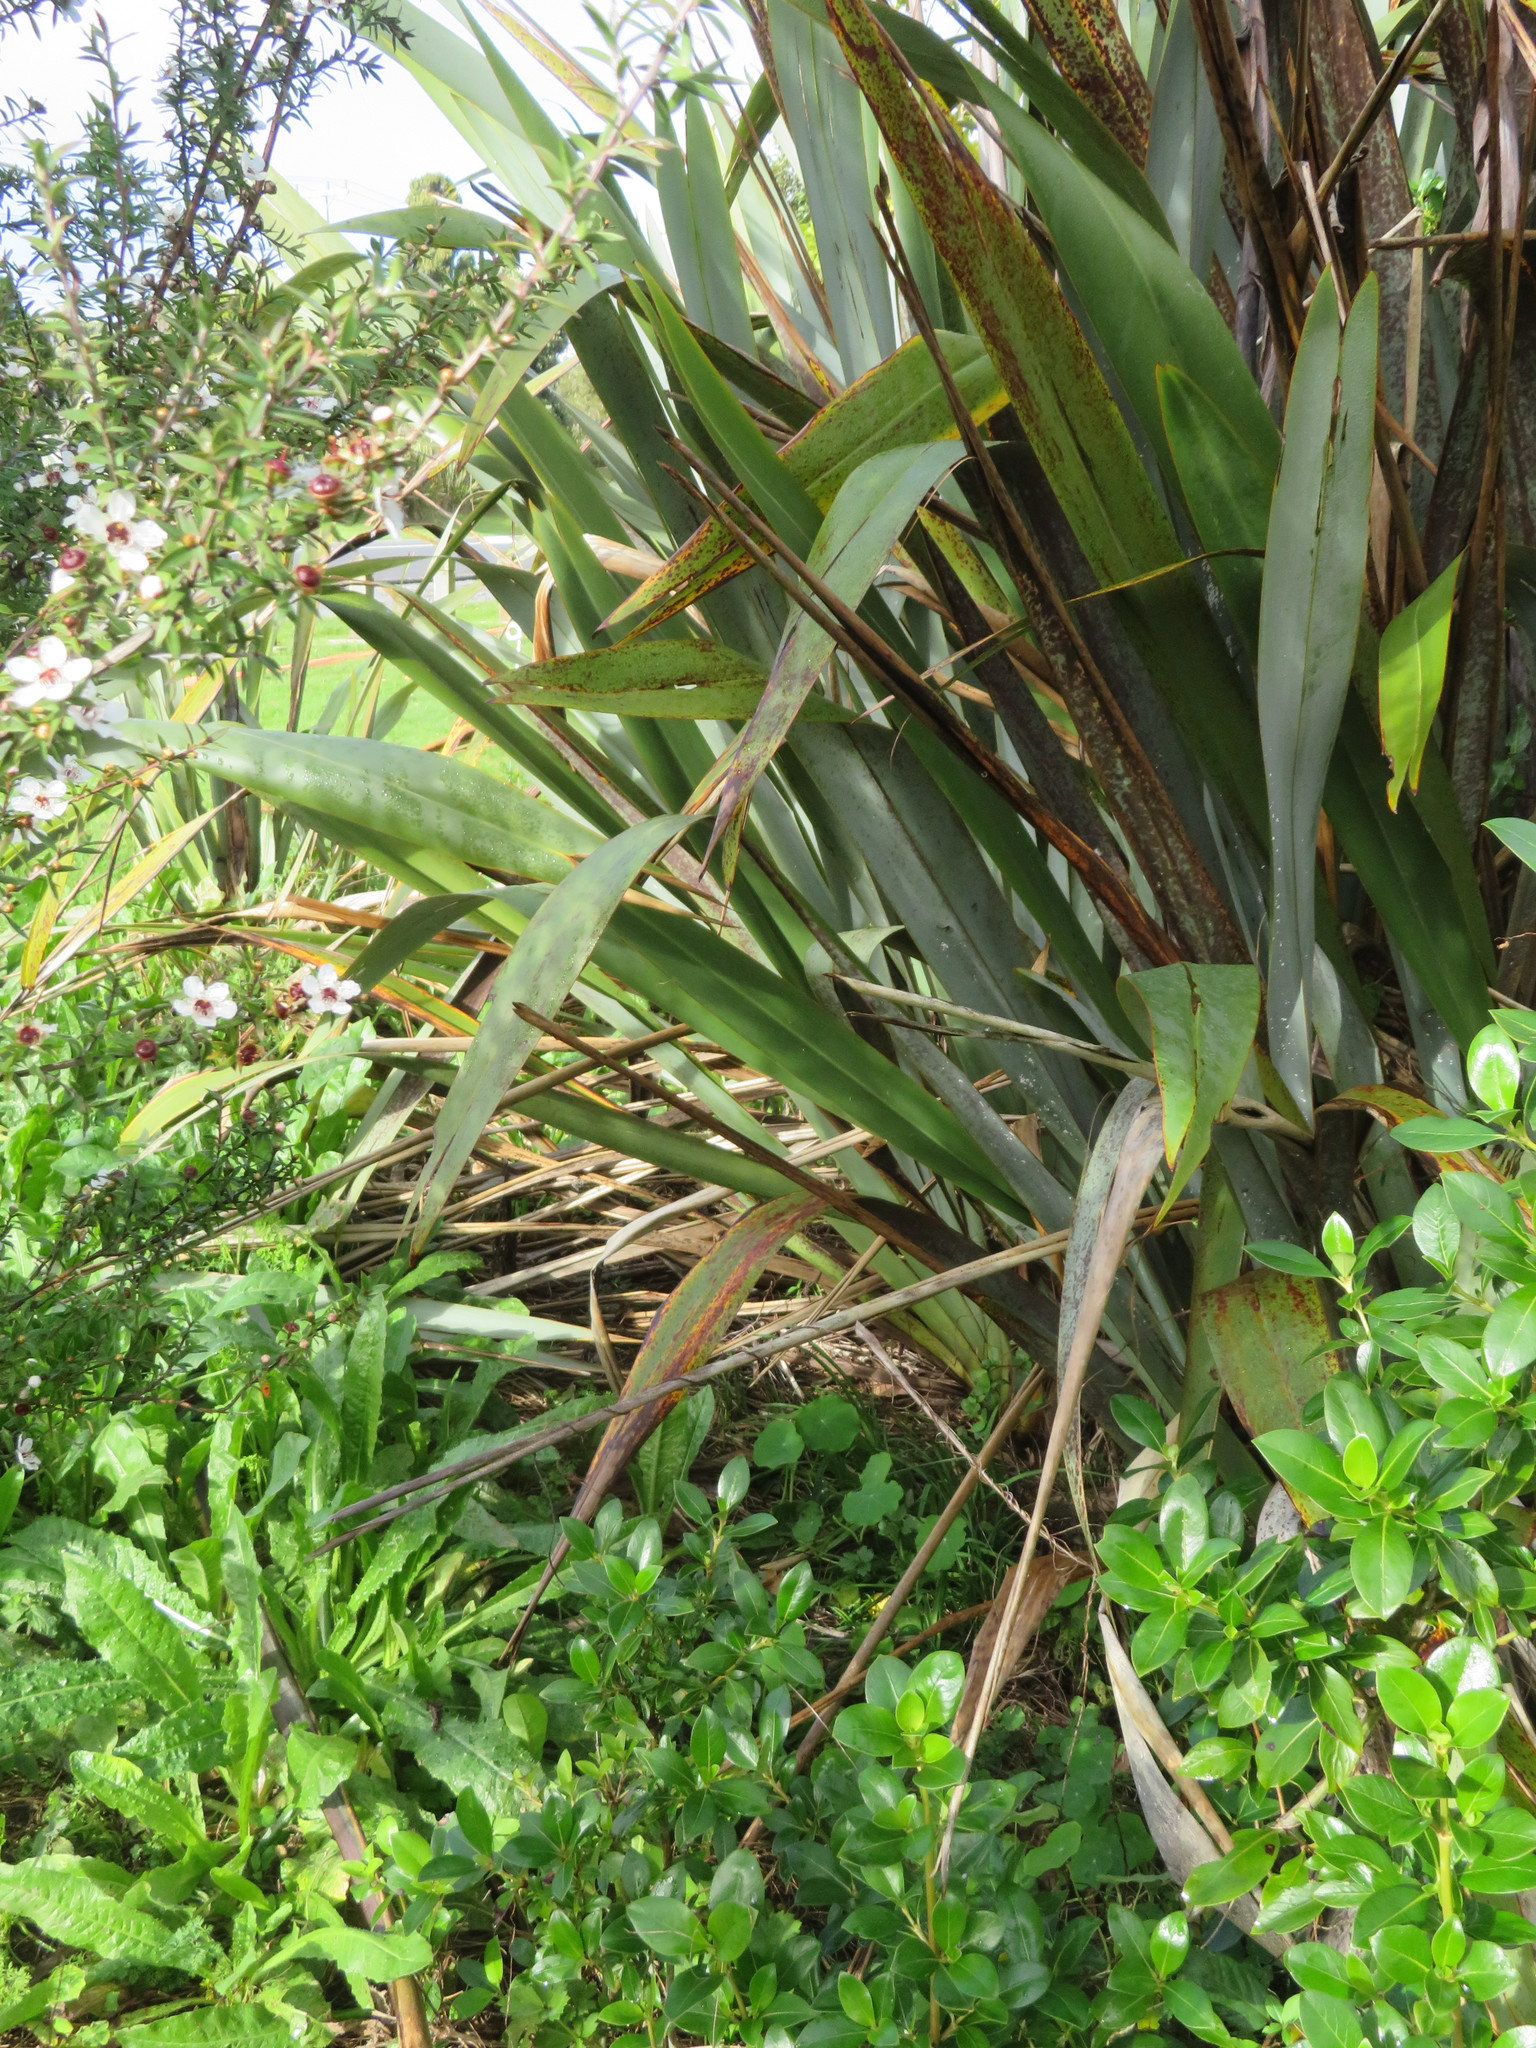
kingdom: Plantae
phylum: Tracheophyta
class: Magnoliopsida
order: Asterales
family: Asteraceae
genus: Helminthotheca
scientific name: Helminthotheca echioides
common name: Ox-tongue
